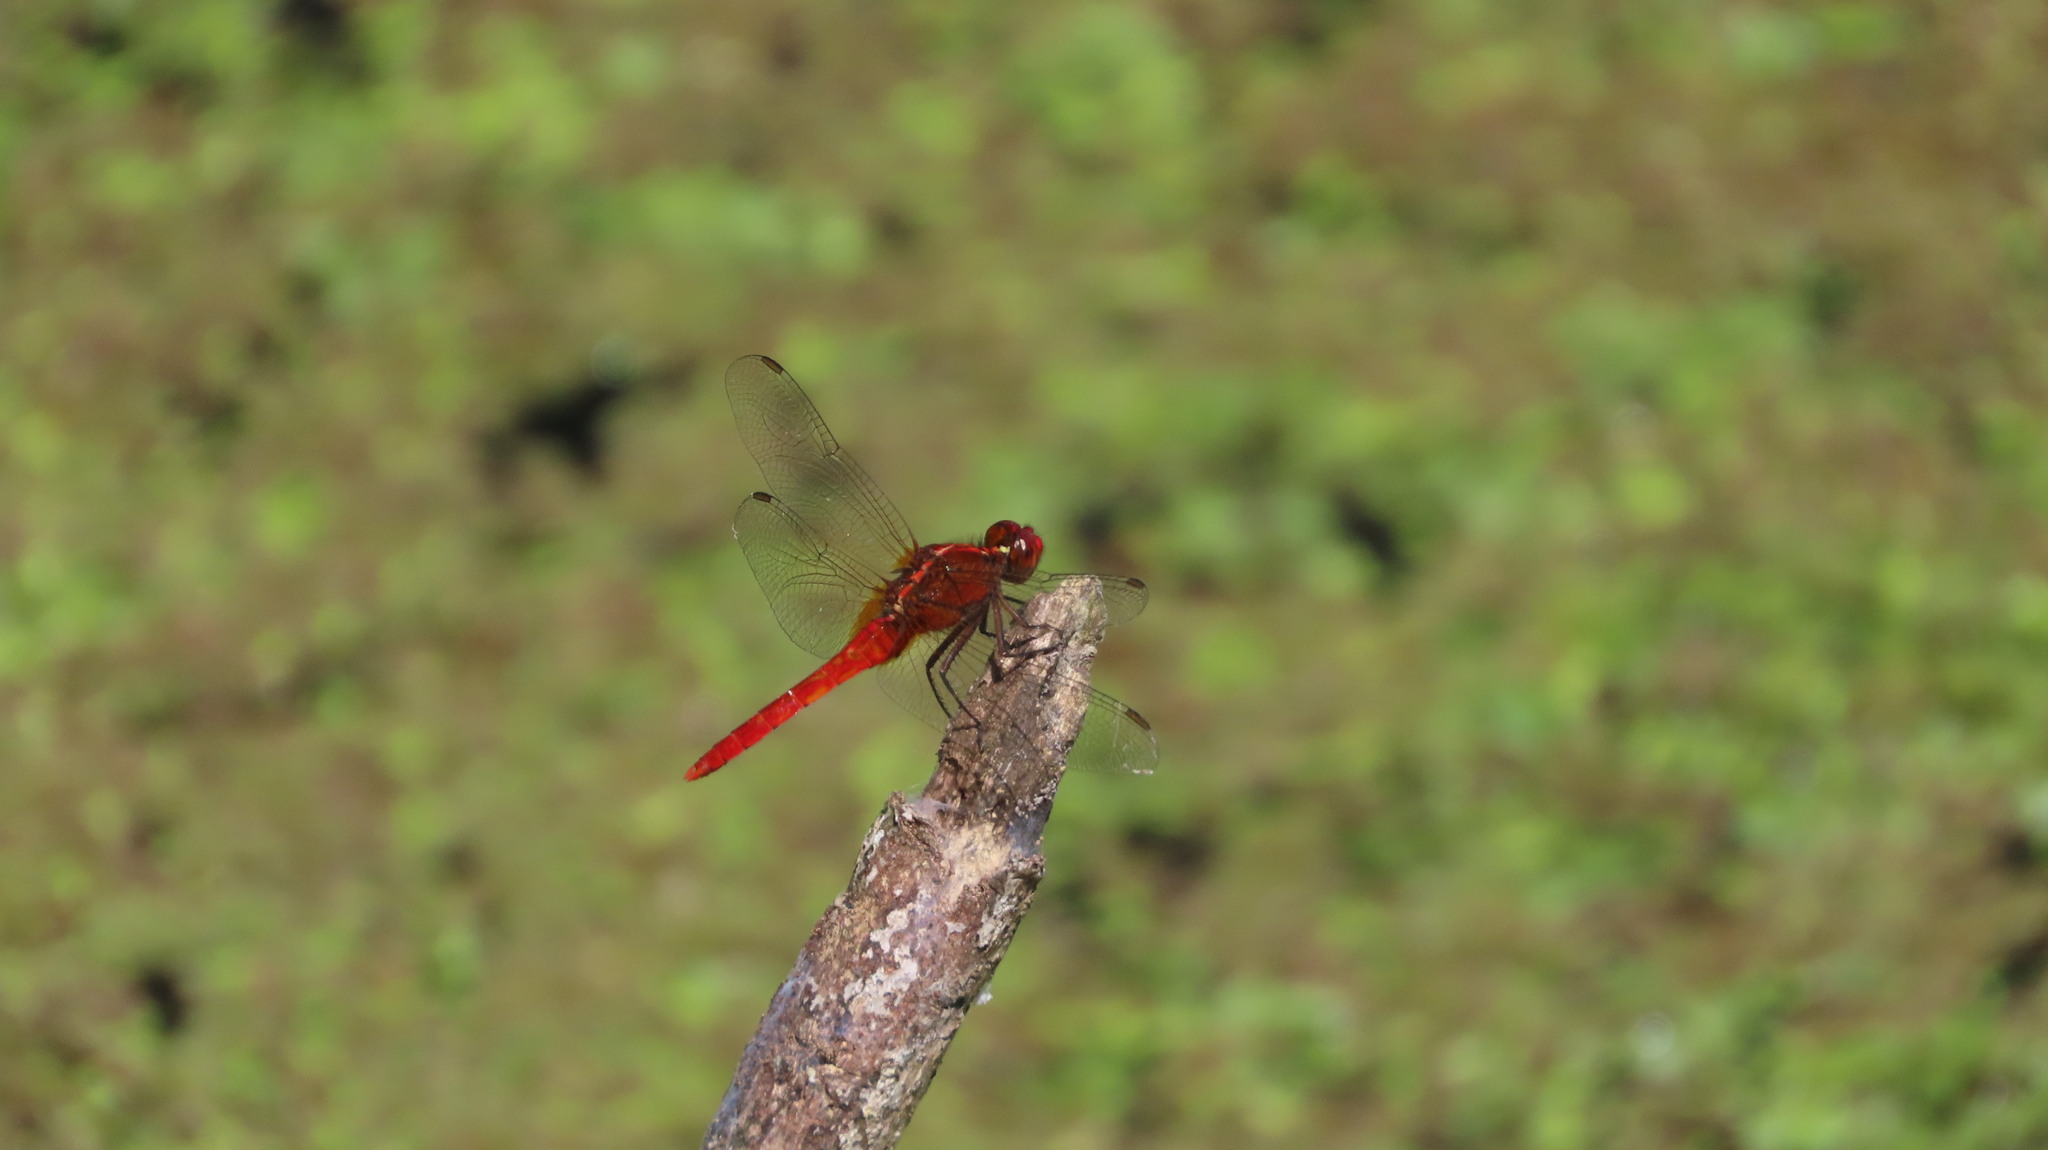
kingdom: Animalia
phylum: Arthropoda
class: Insecta
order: Odonata
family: Libellulidae
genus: Rhodothemis
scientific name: Rhodothemis rufa
